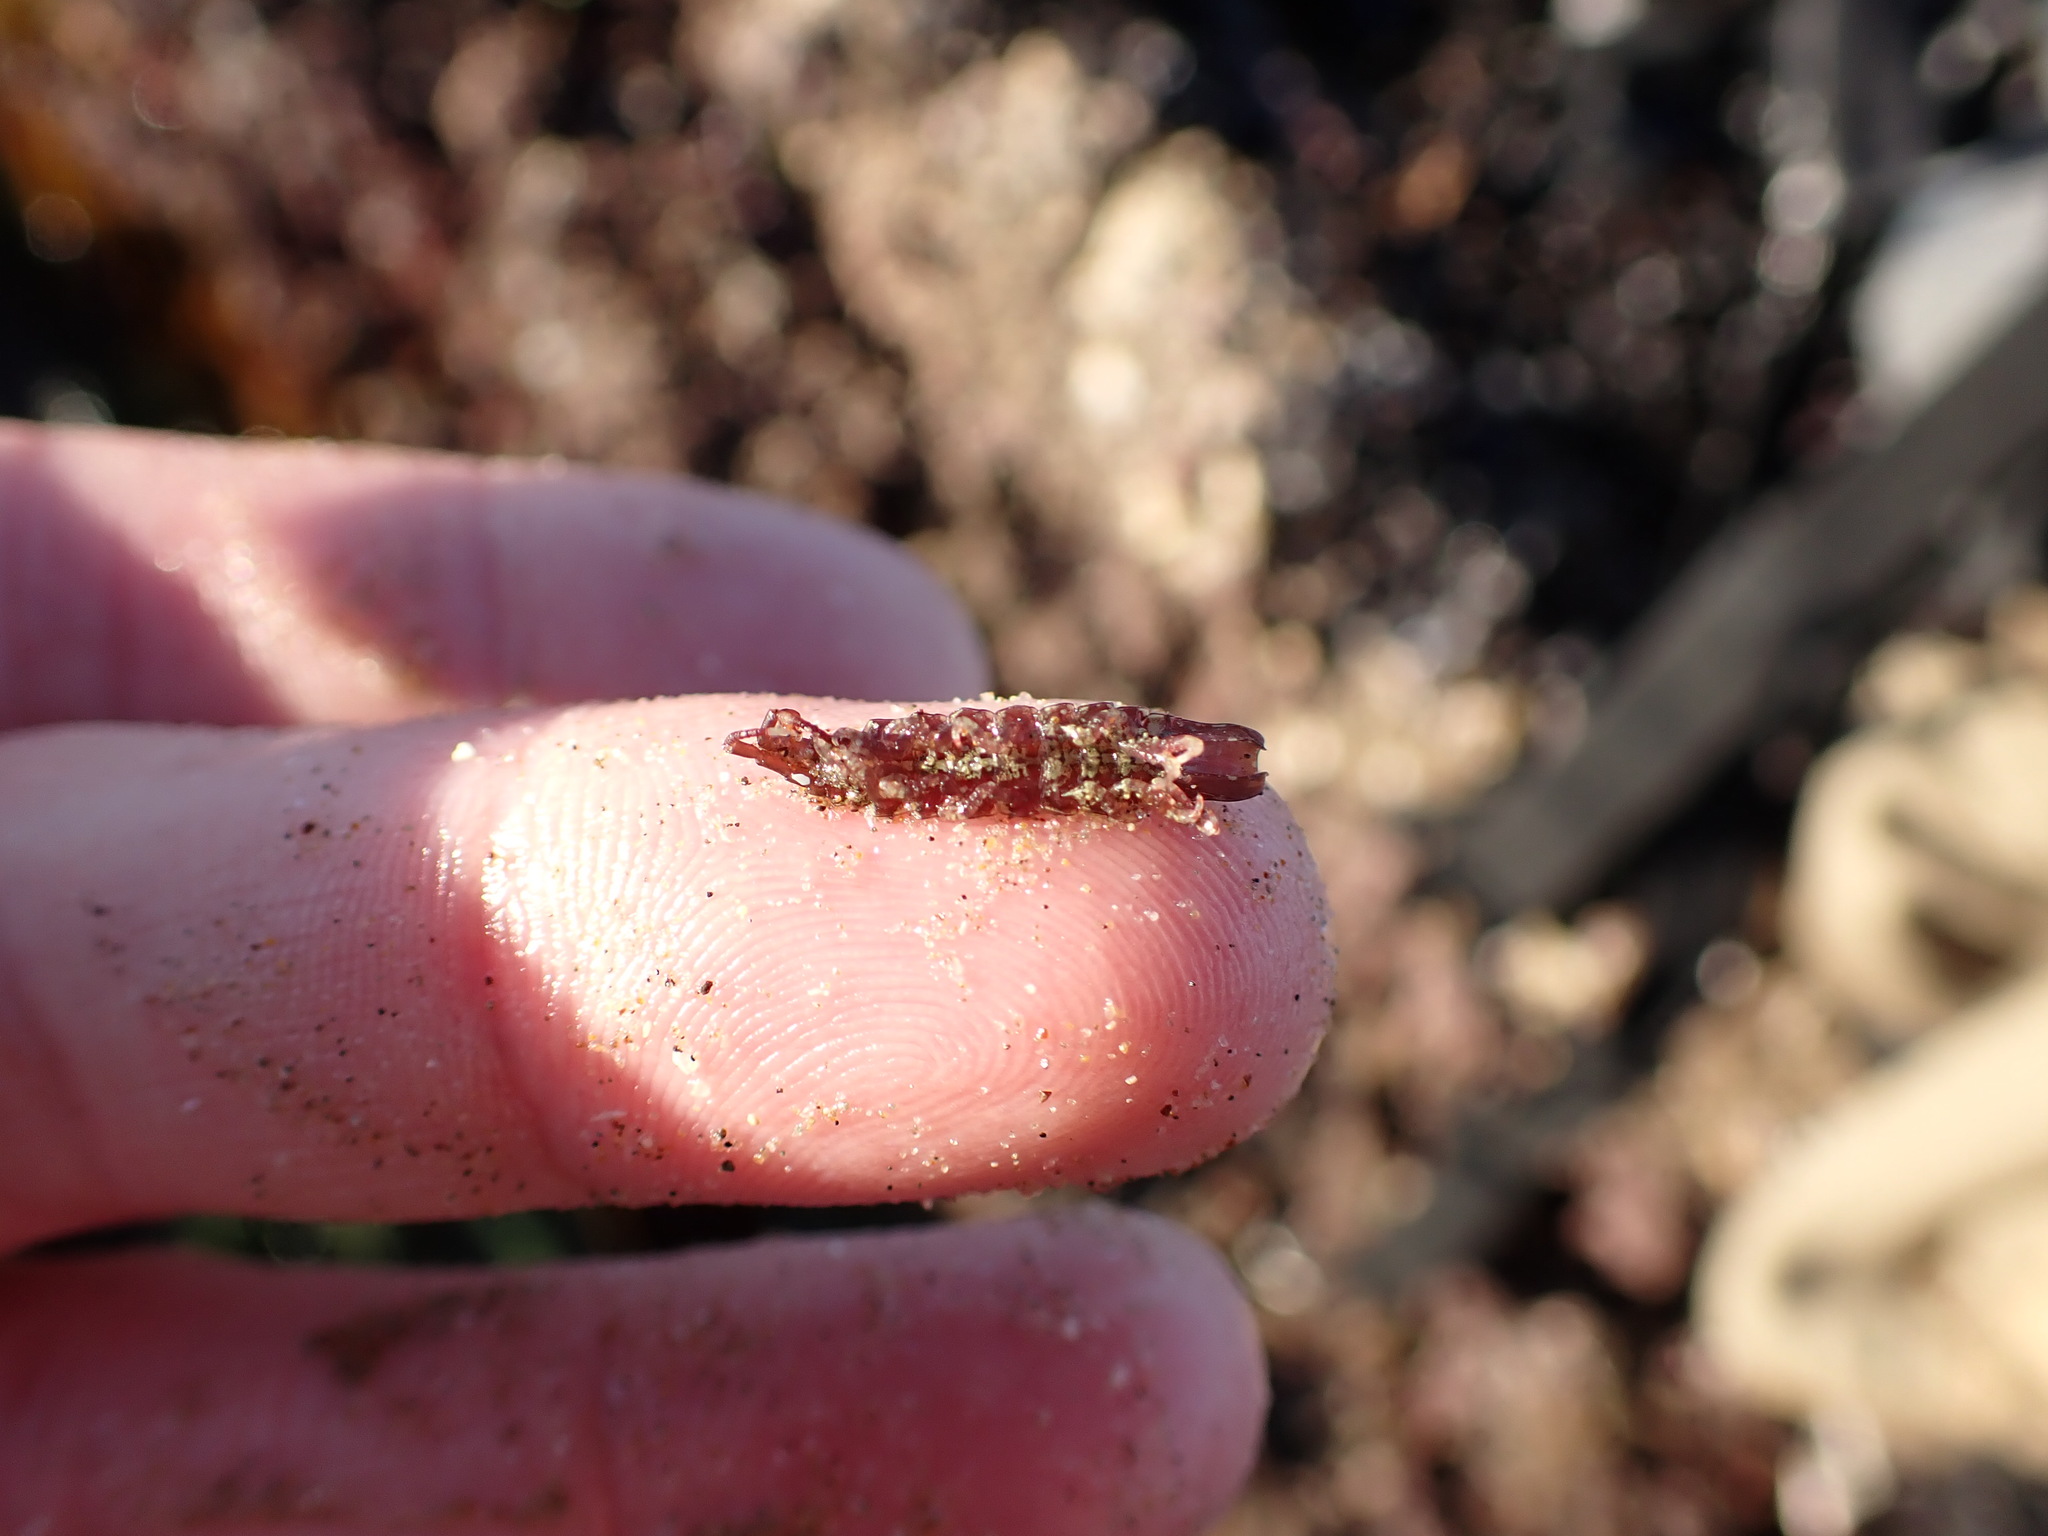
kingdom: Animalia
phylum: Arthropoda
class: Malacostraca
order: Isopoda
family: Idoteidae
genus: Idotea
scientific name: Idotea rufescens
